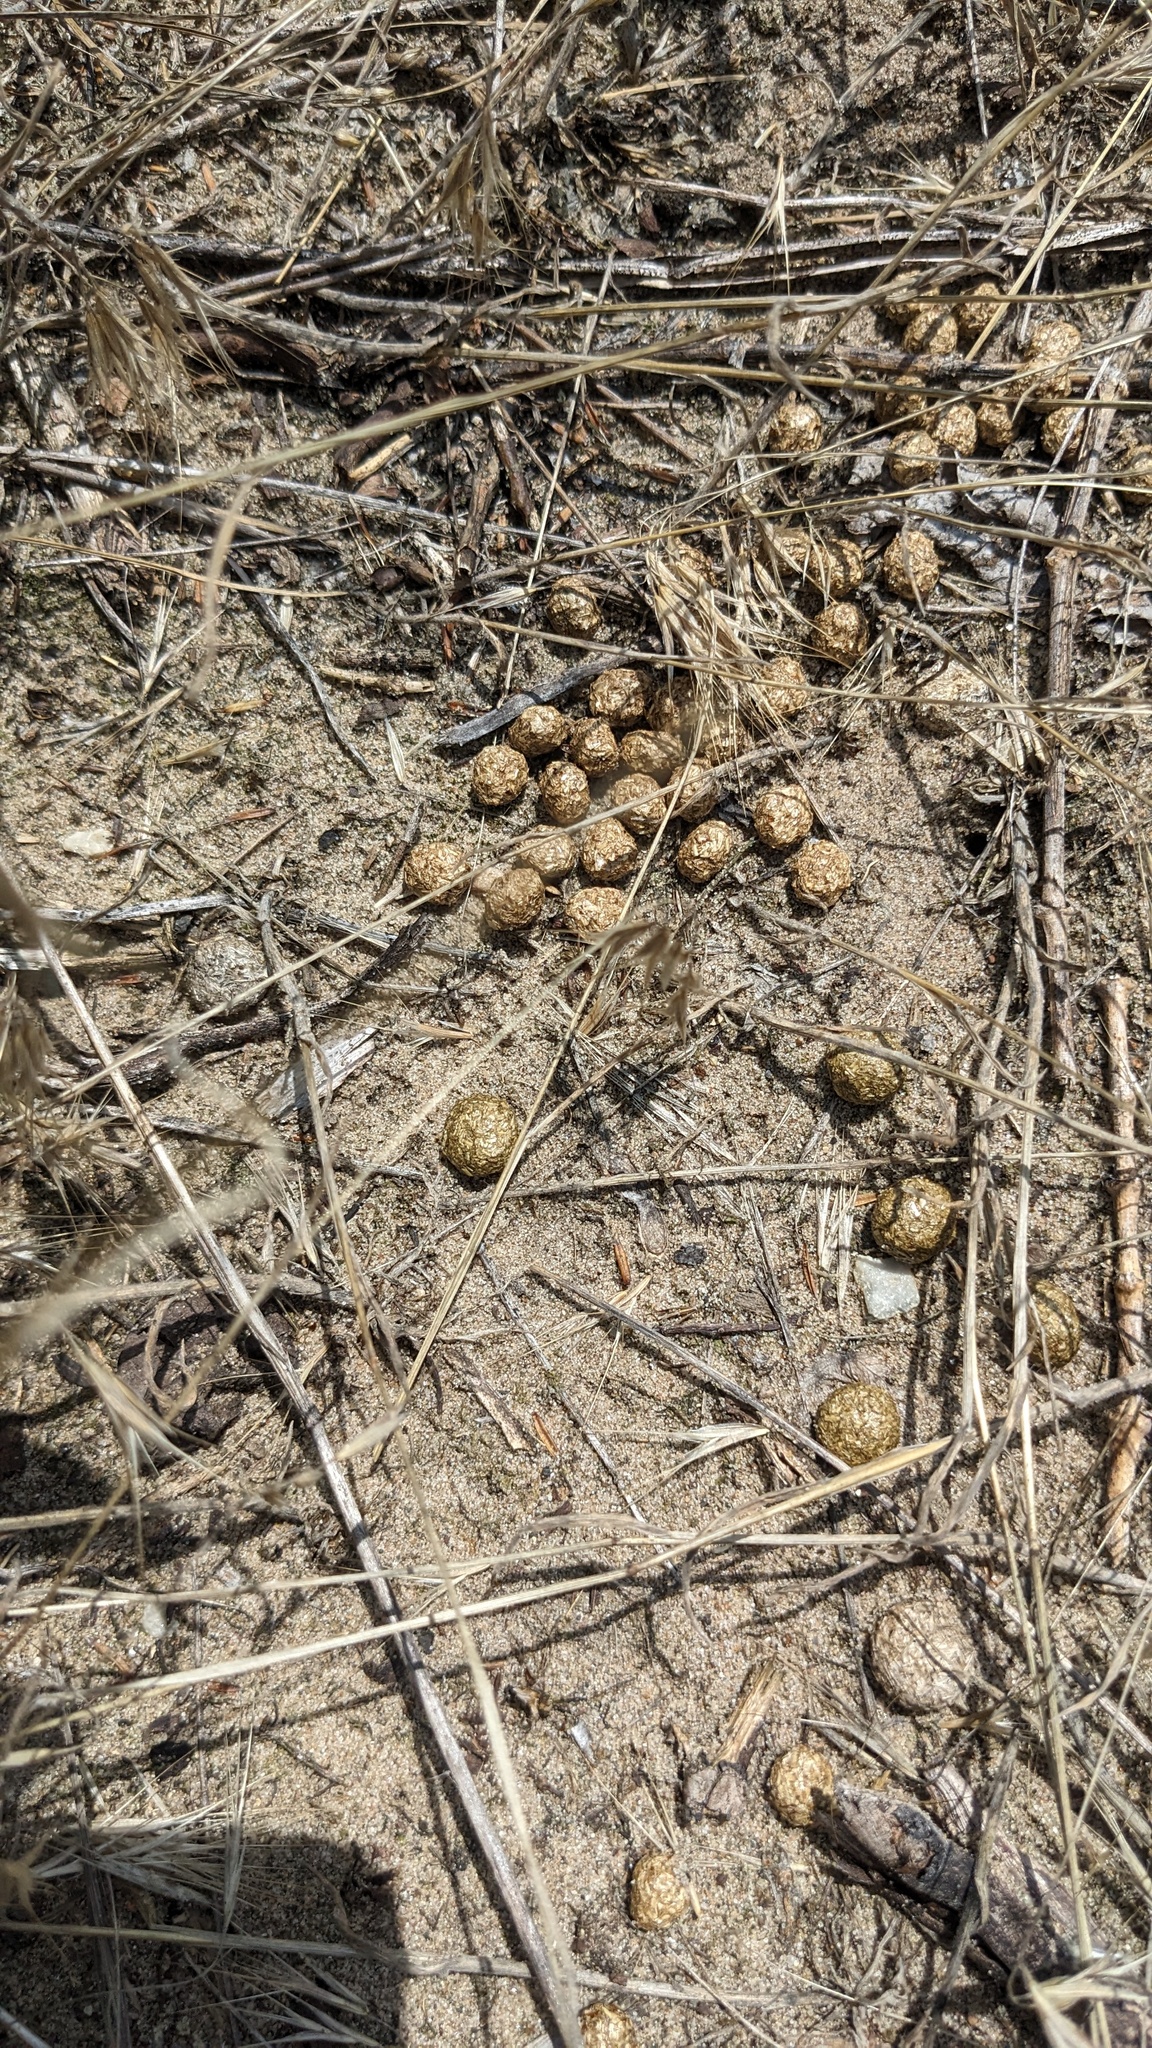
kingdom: Animalia
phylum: Chordata
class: Mammalia
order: Lagomorpha
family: Leporidae
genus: Sylvilagus
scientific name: Sylvilagus floridanus
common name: Eastern cottontail
